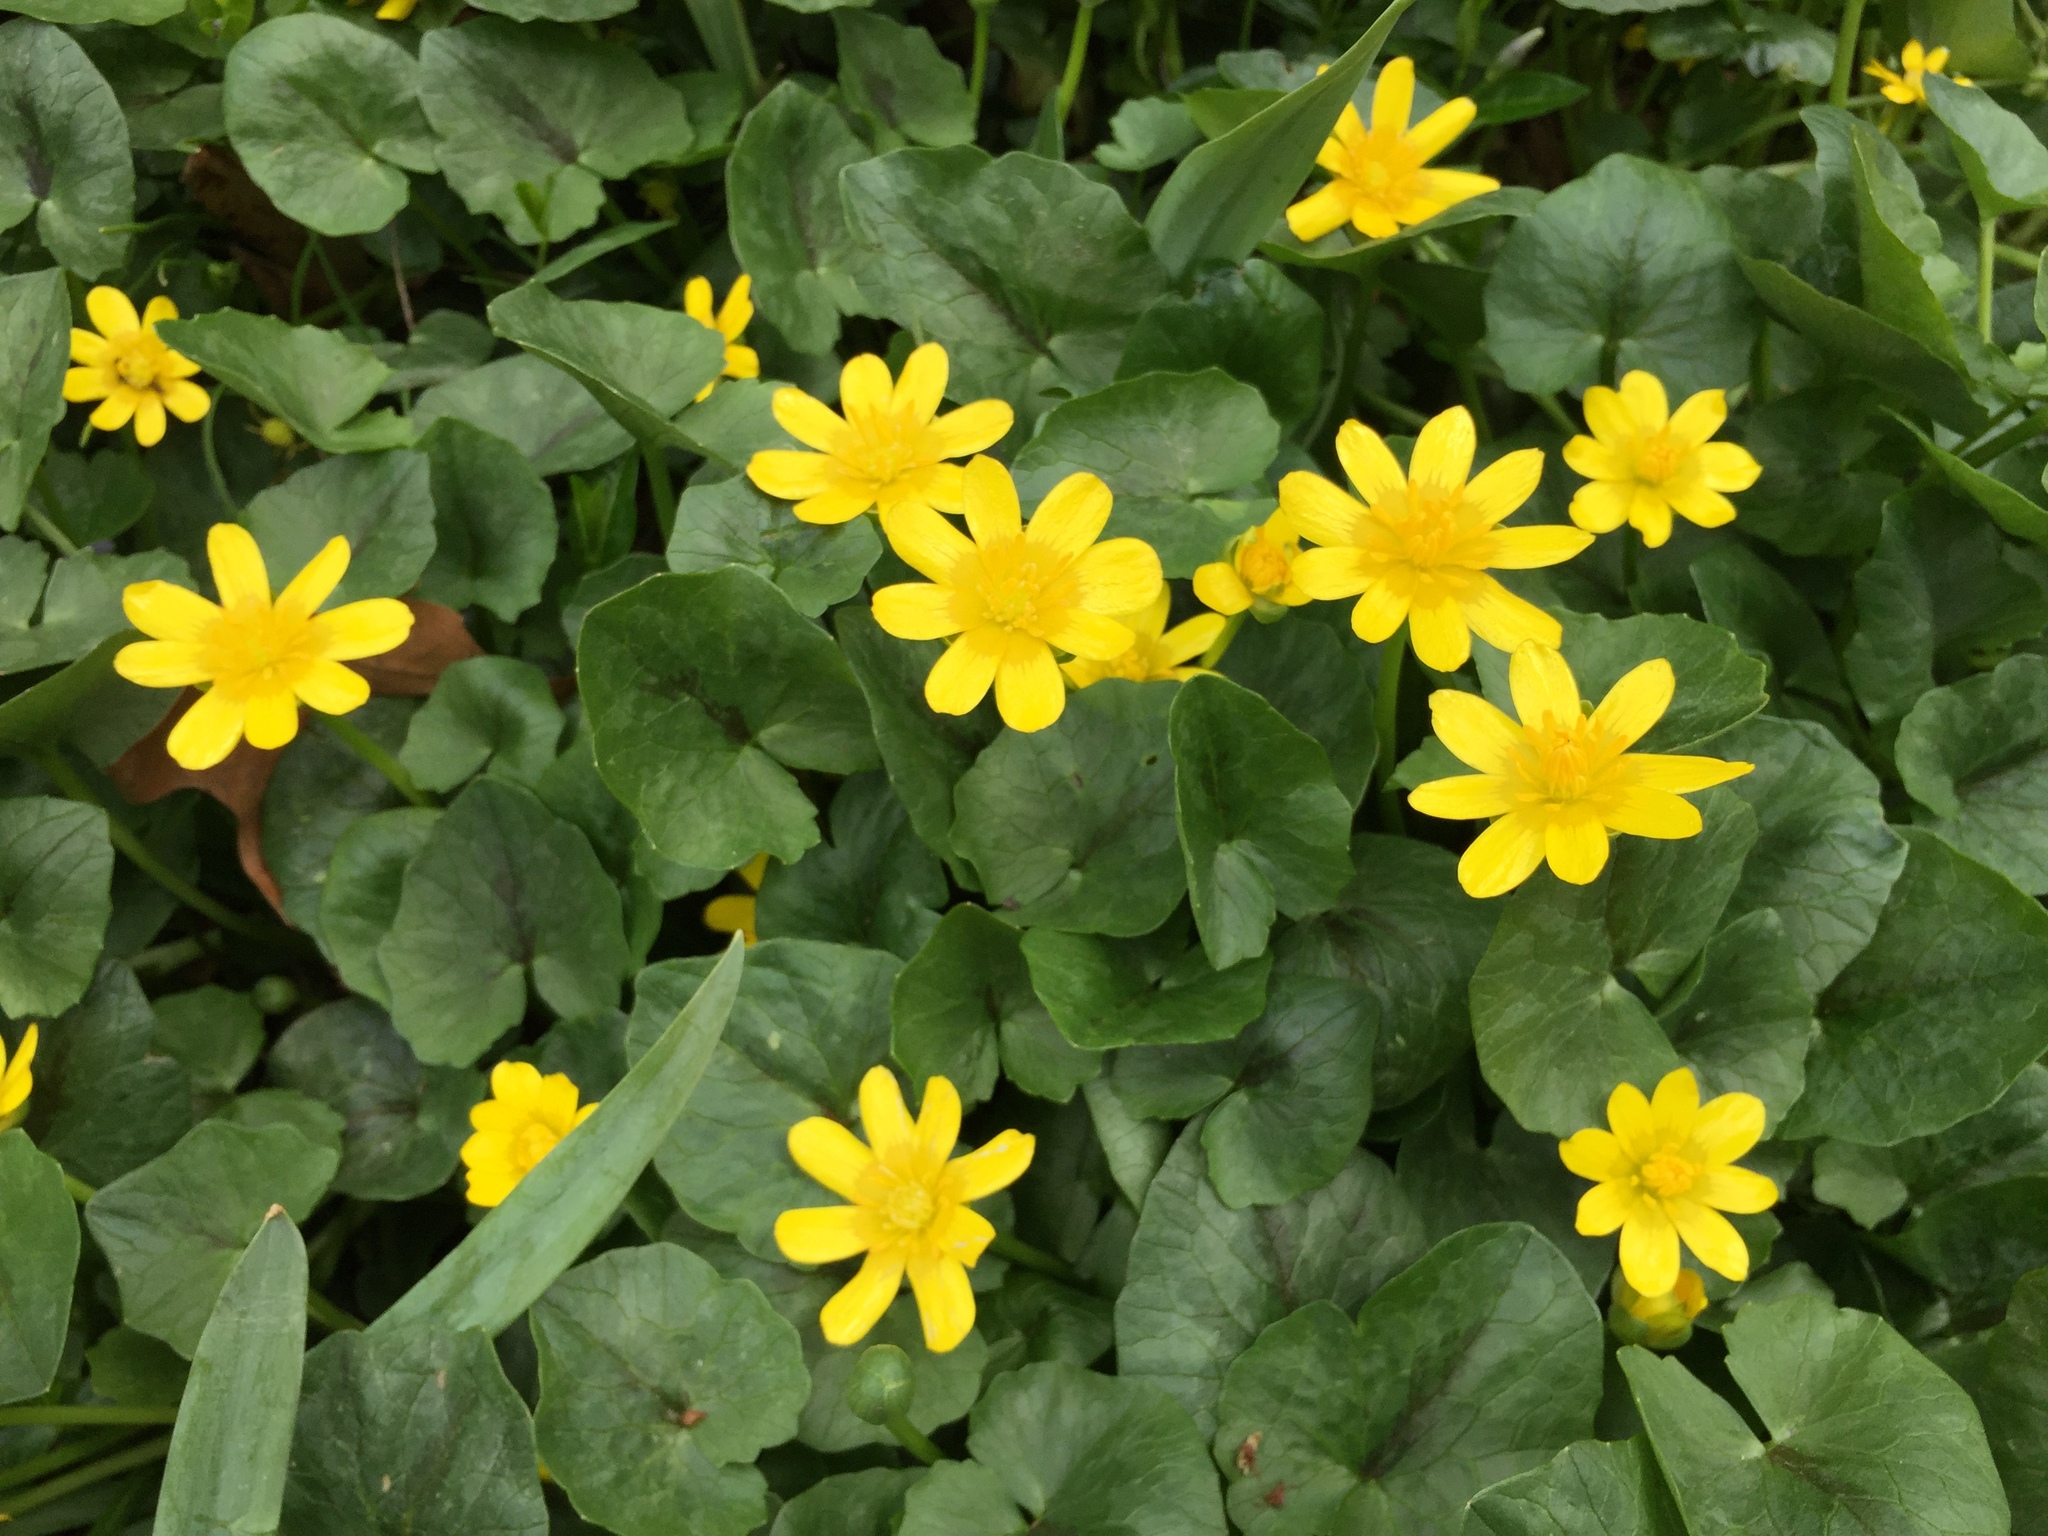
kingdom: Plantae
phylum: Tracheophyta
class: Magnoliopsida
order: Ranunculales
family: Ranunculaceae
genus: Ficaria
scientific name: Ficaria verna
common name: Lesser celandine
